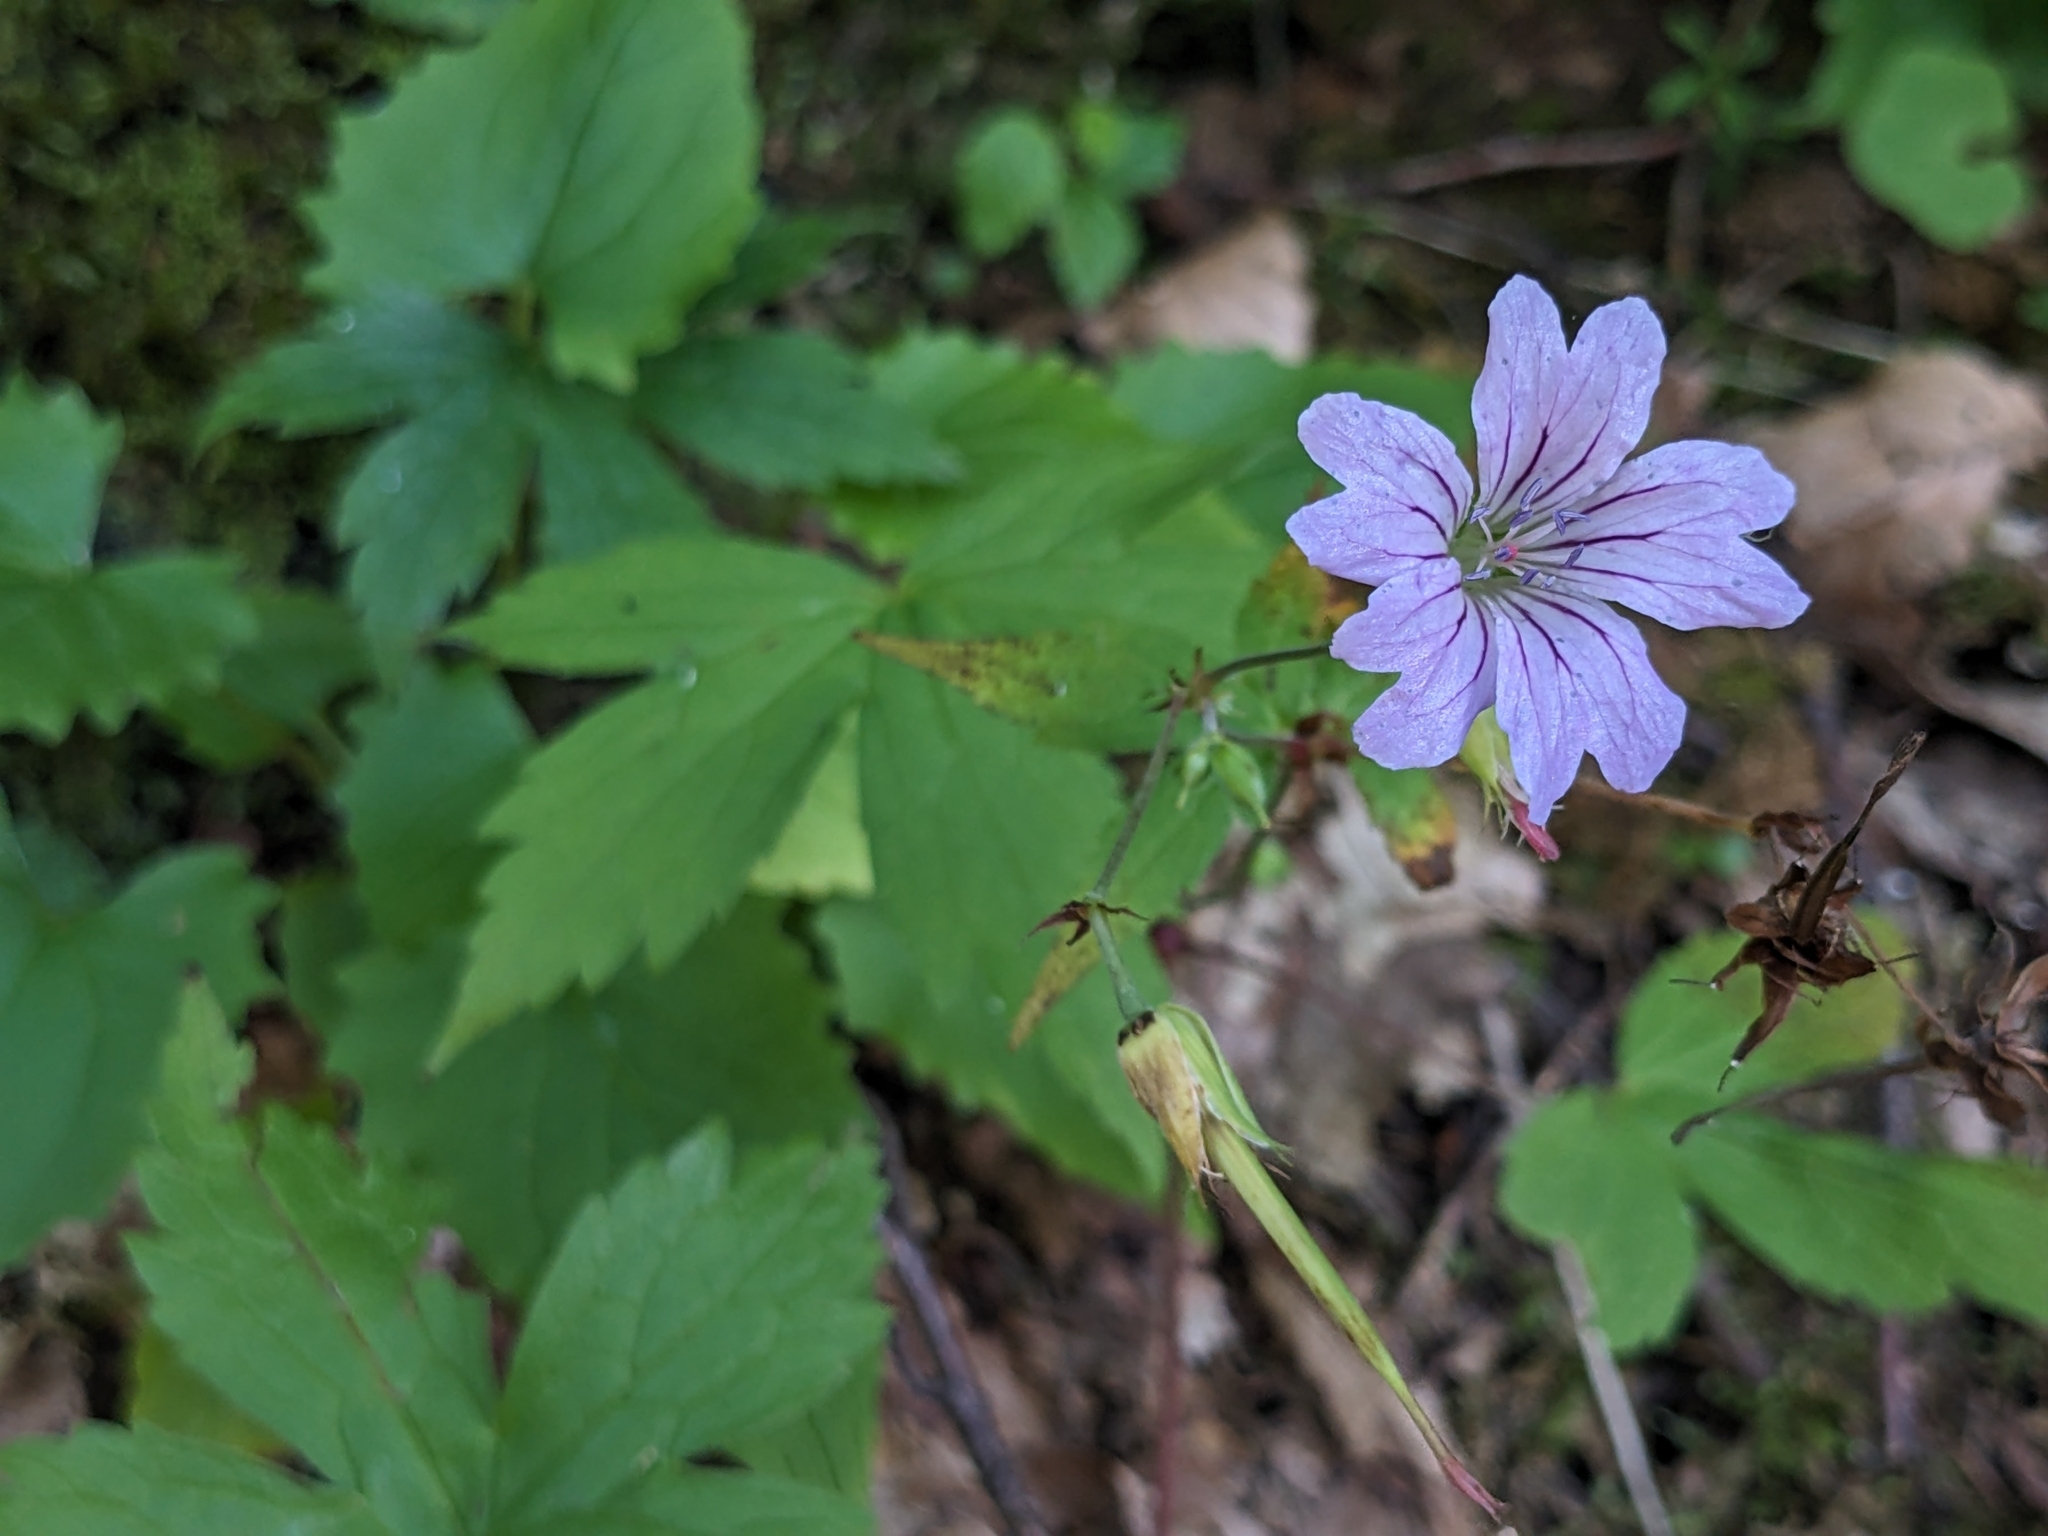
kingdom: Plantae
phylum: Tracheophyta
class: Magnoliopsida
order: Geraniales
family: Geraniaceae
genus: Geranium
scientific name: Geranium nodosum
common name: Knotted crane's-bill
